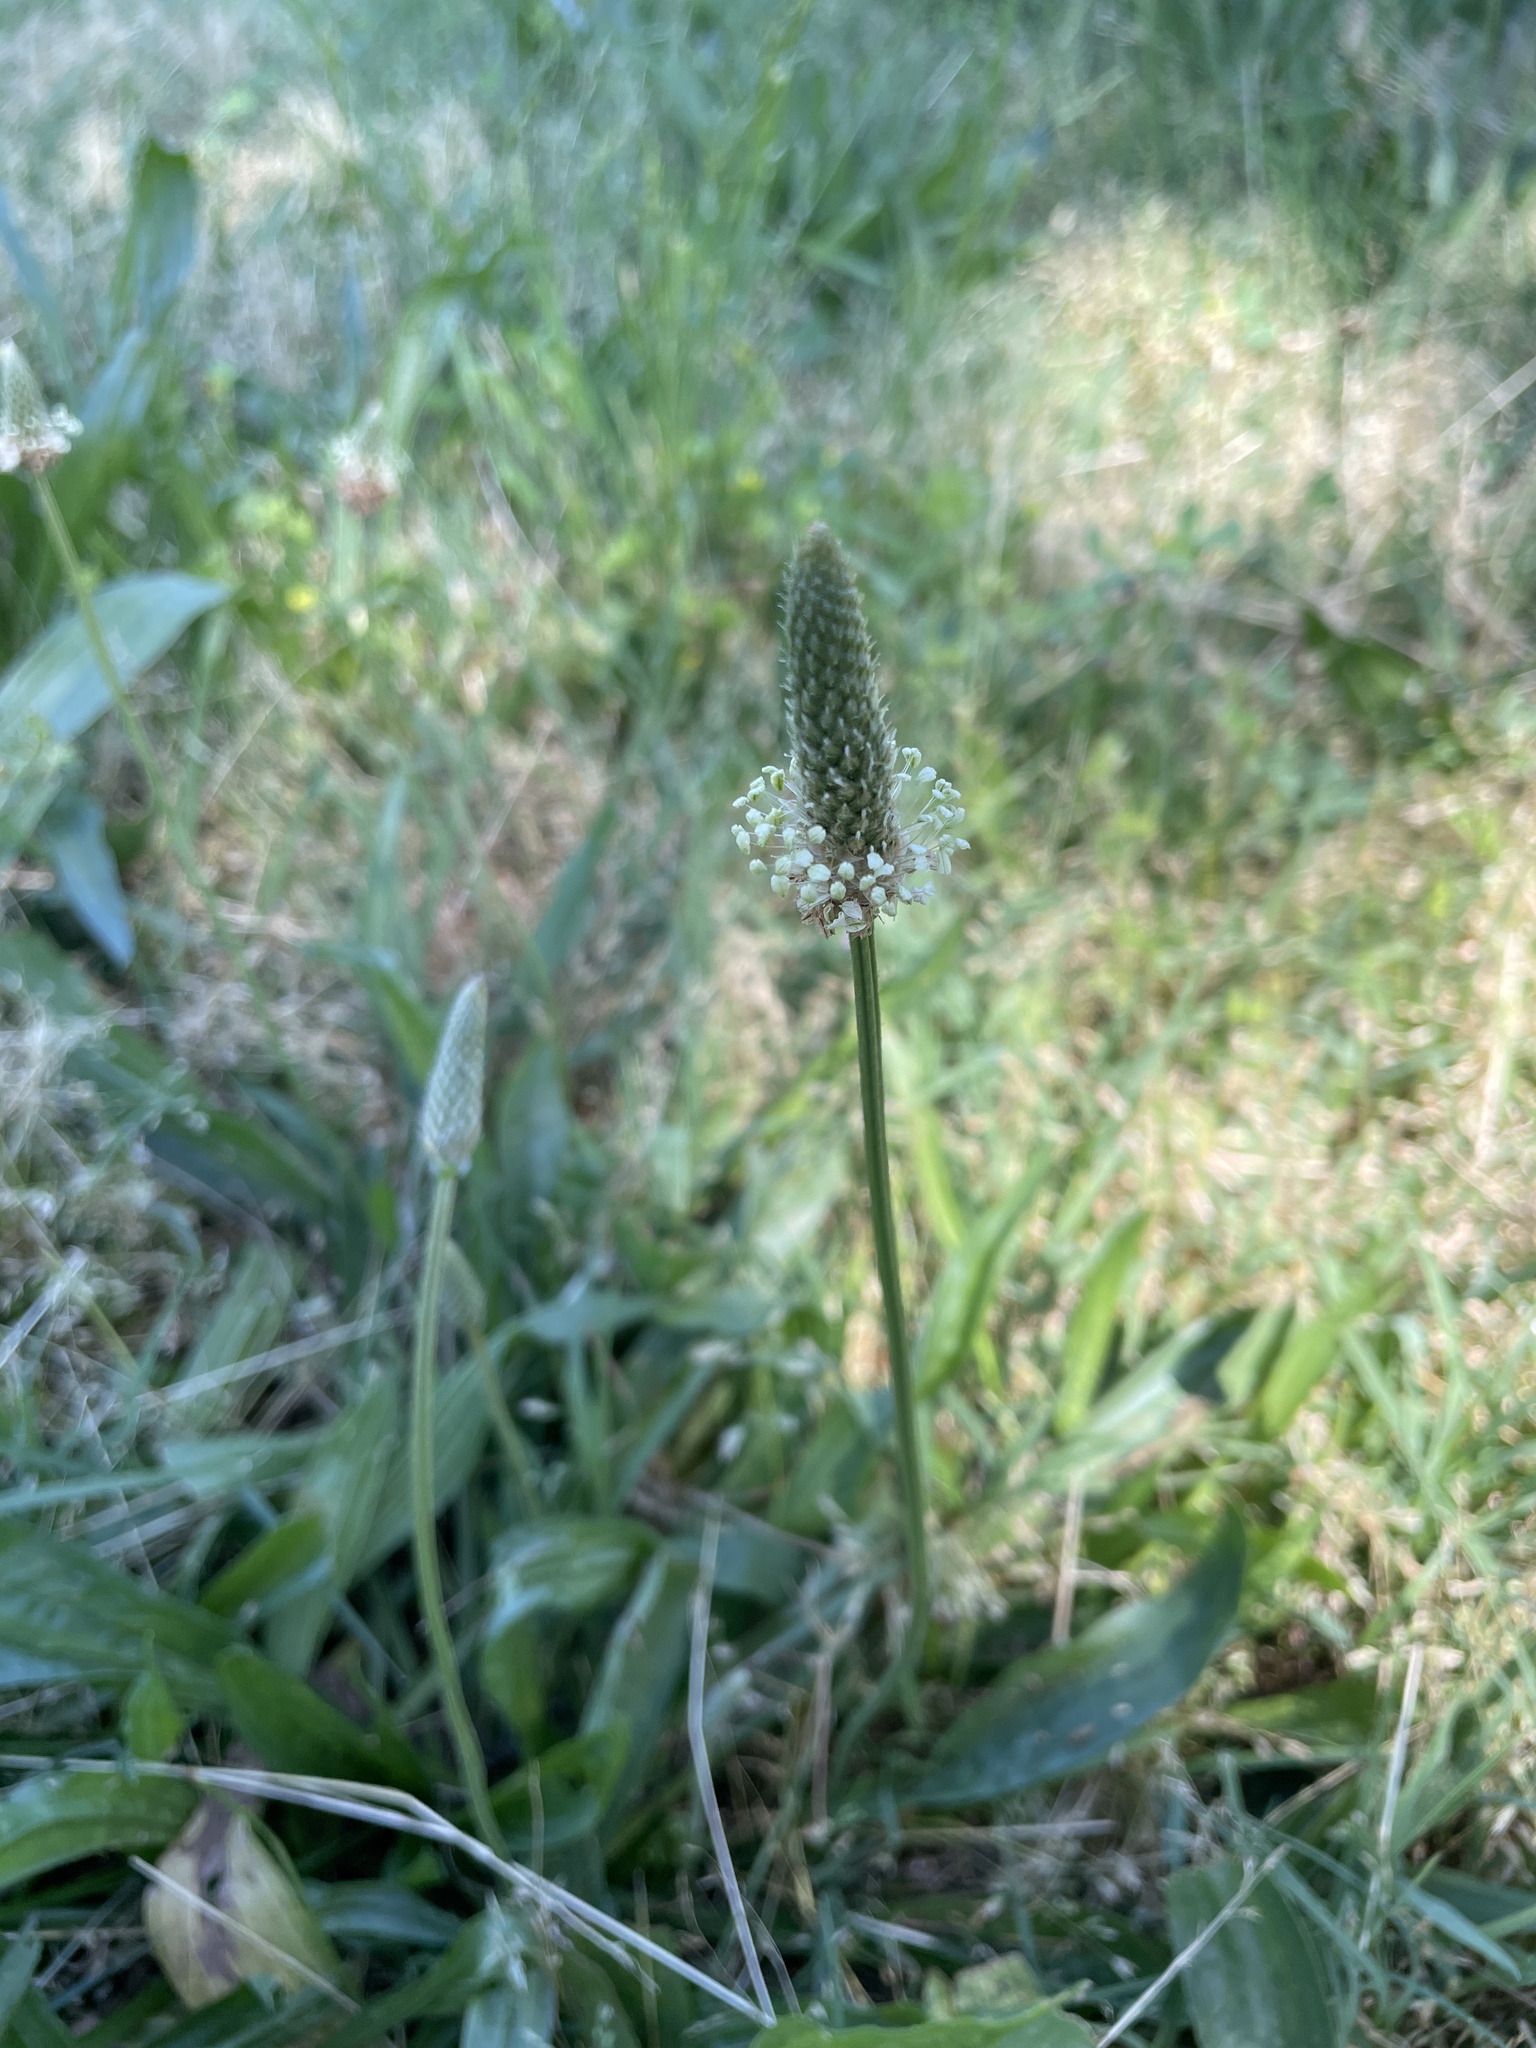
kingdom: Plantae
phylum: Tracheophyta
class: Magnoliopsida
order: Lamiales
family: Plantaginaceae
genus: Plantago
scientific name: Plantago lanceolata
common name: Ribwort plantain
